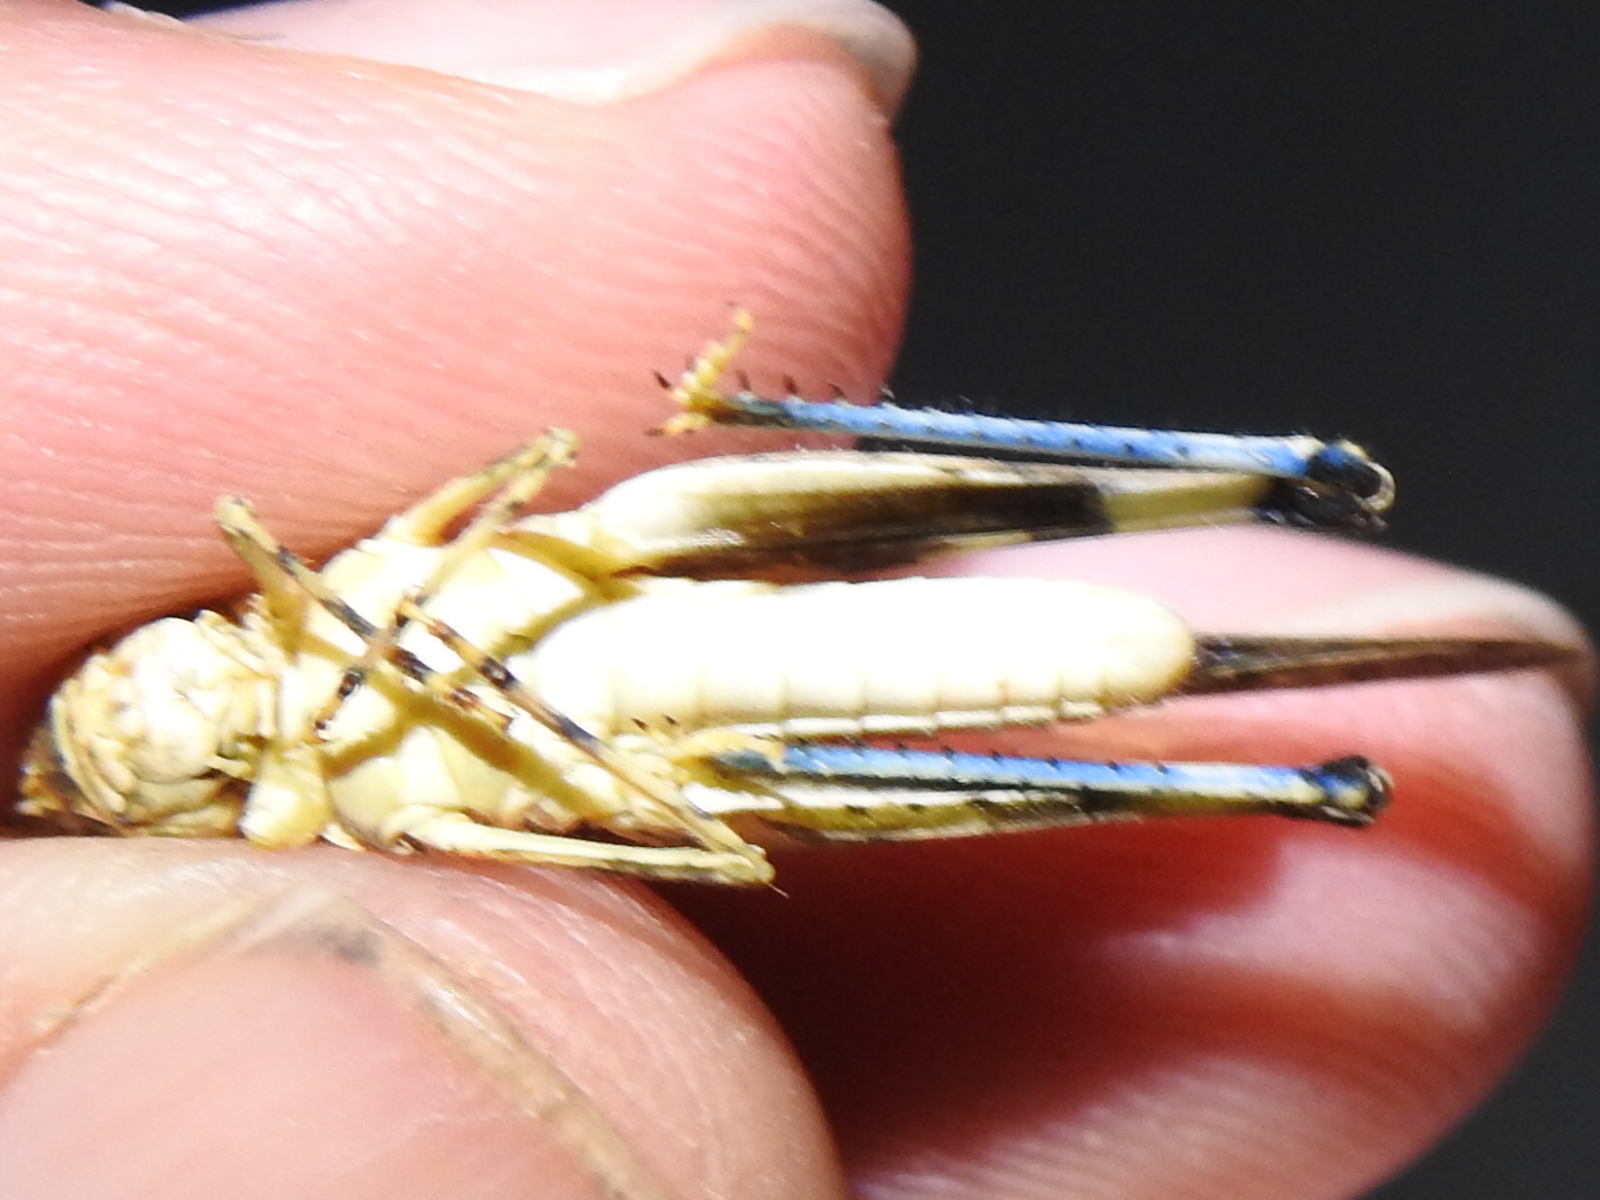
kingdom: Animalia
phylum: Arthropoda
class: Insecta
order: Orthoptera
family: Acrididae
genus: Trachyrhachys
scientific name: Trachyrhachys kiowa
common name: Kiowa grasshopper
